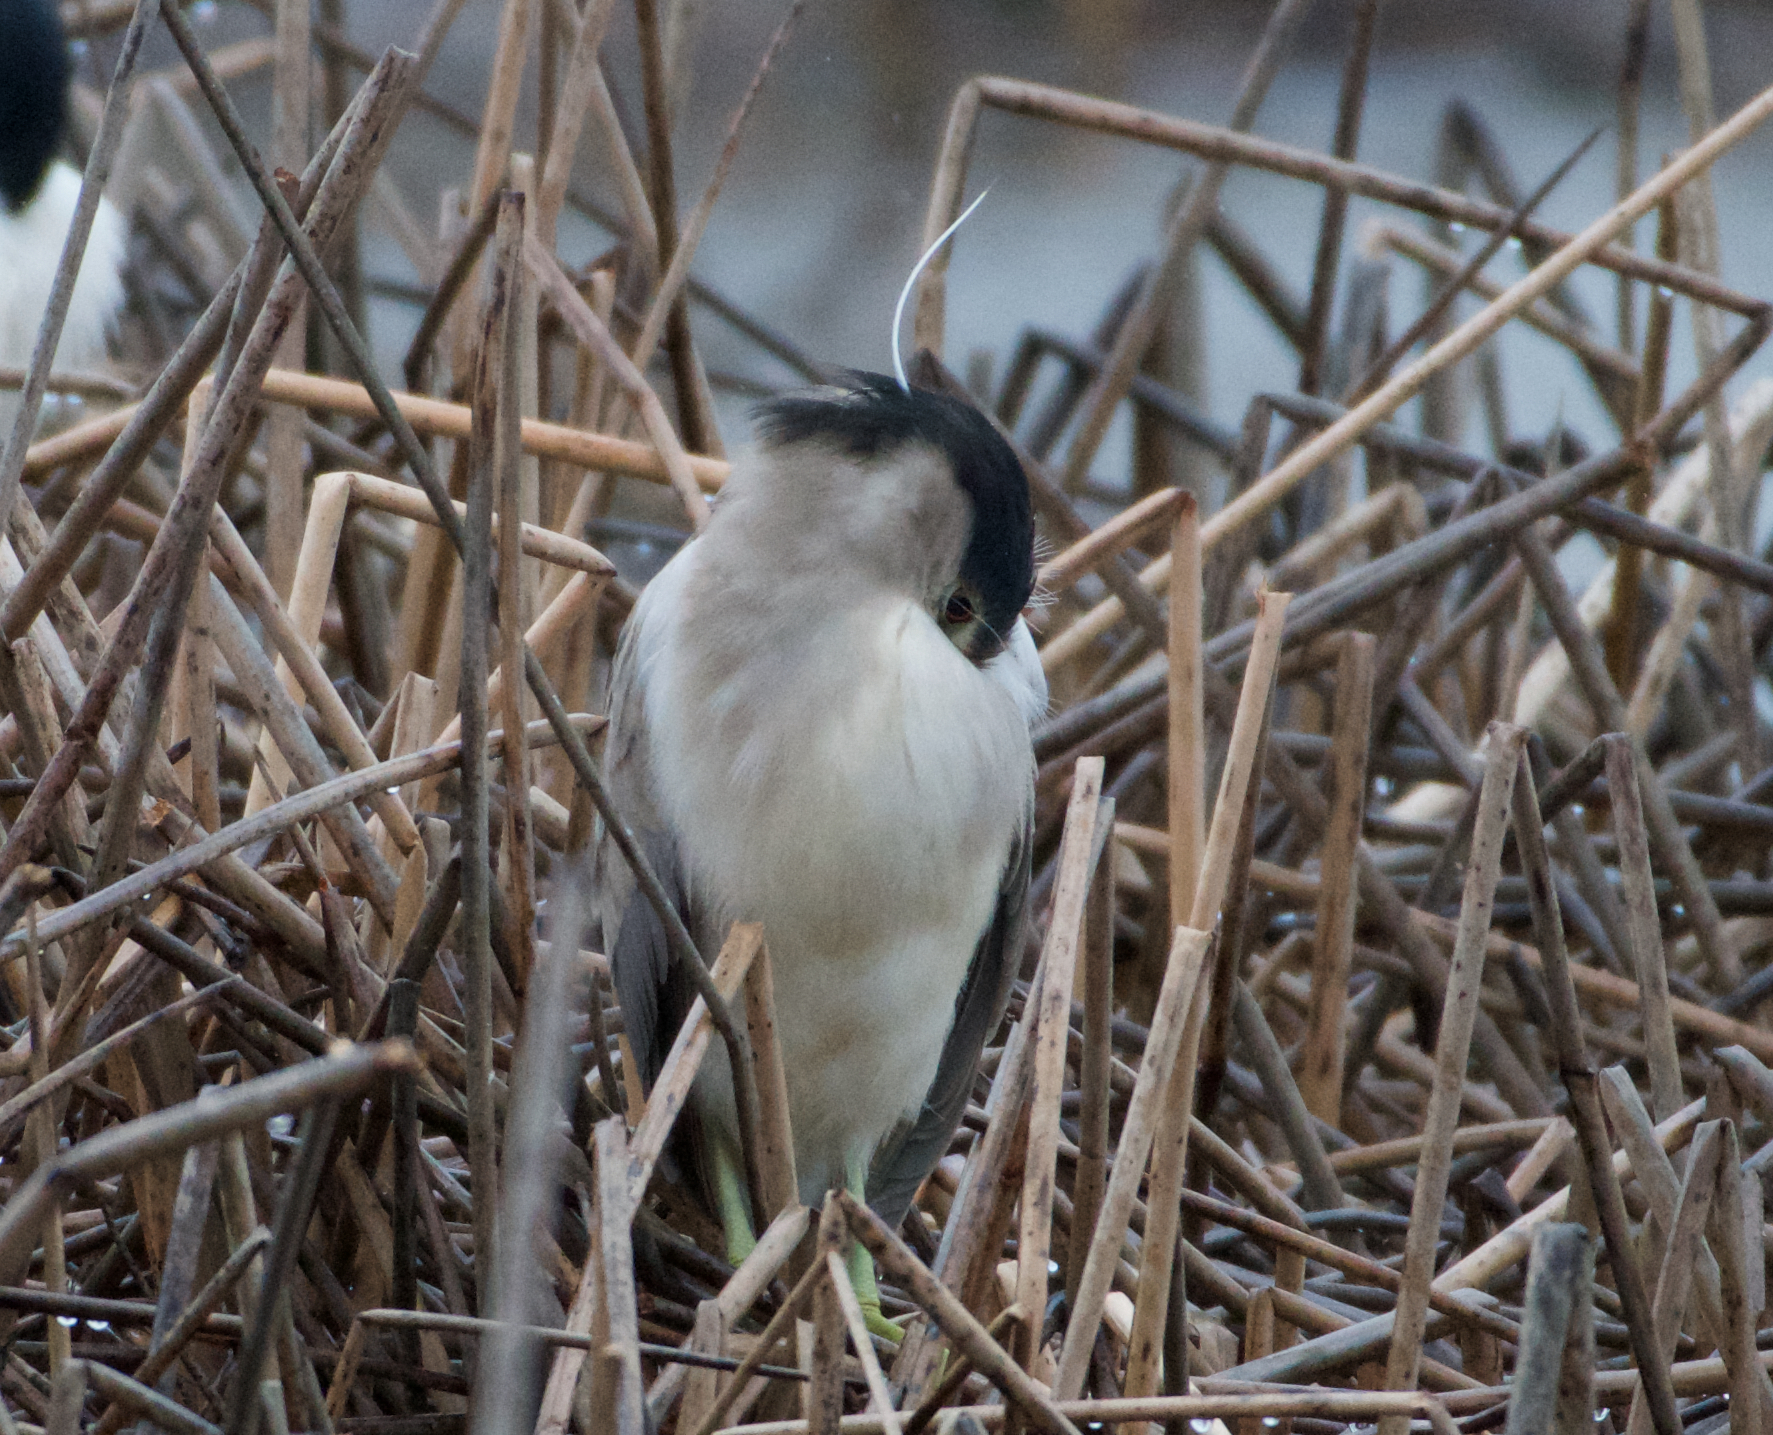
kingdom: Animalia
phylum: Chordata
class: Aves
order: Pelecaniformes
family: Ardeidae
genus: Nycticorax
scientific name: Nycticorax nycticorax
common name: Black-crowned night heron
